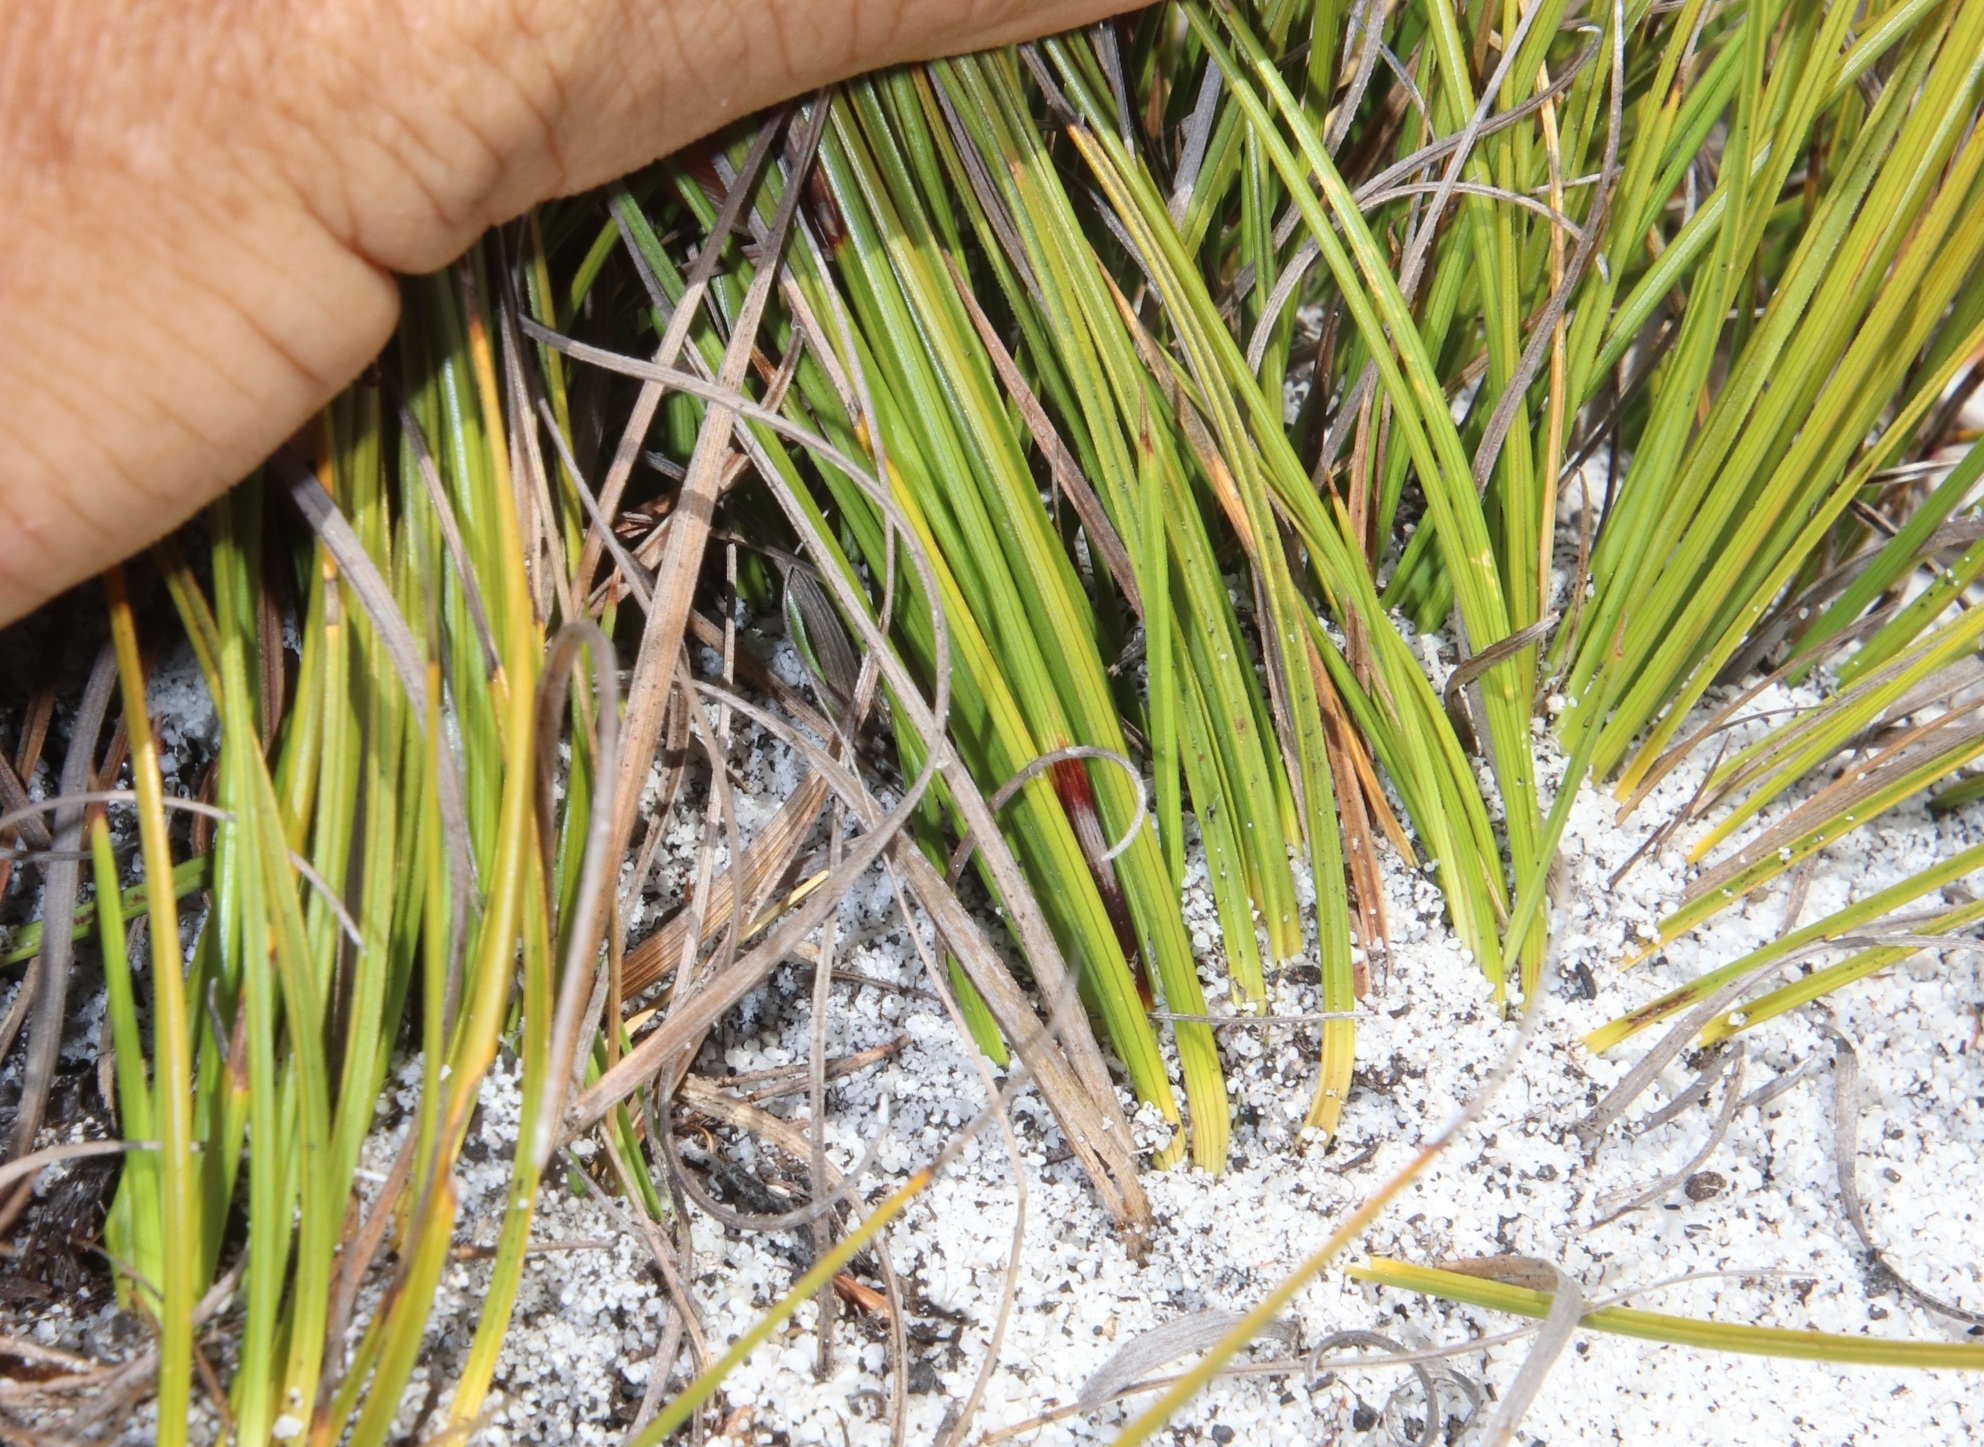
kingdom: Plantae
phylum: Tracheophyta
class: Liliopsida
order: Poales
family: Cyperaceae
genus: Tetraria
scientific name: Tetraria microstachys
